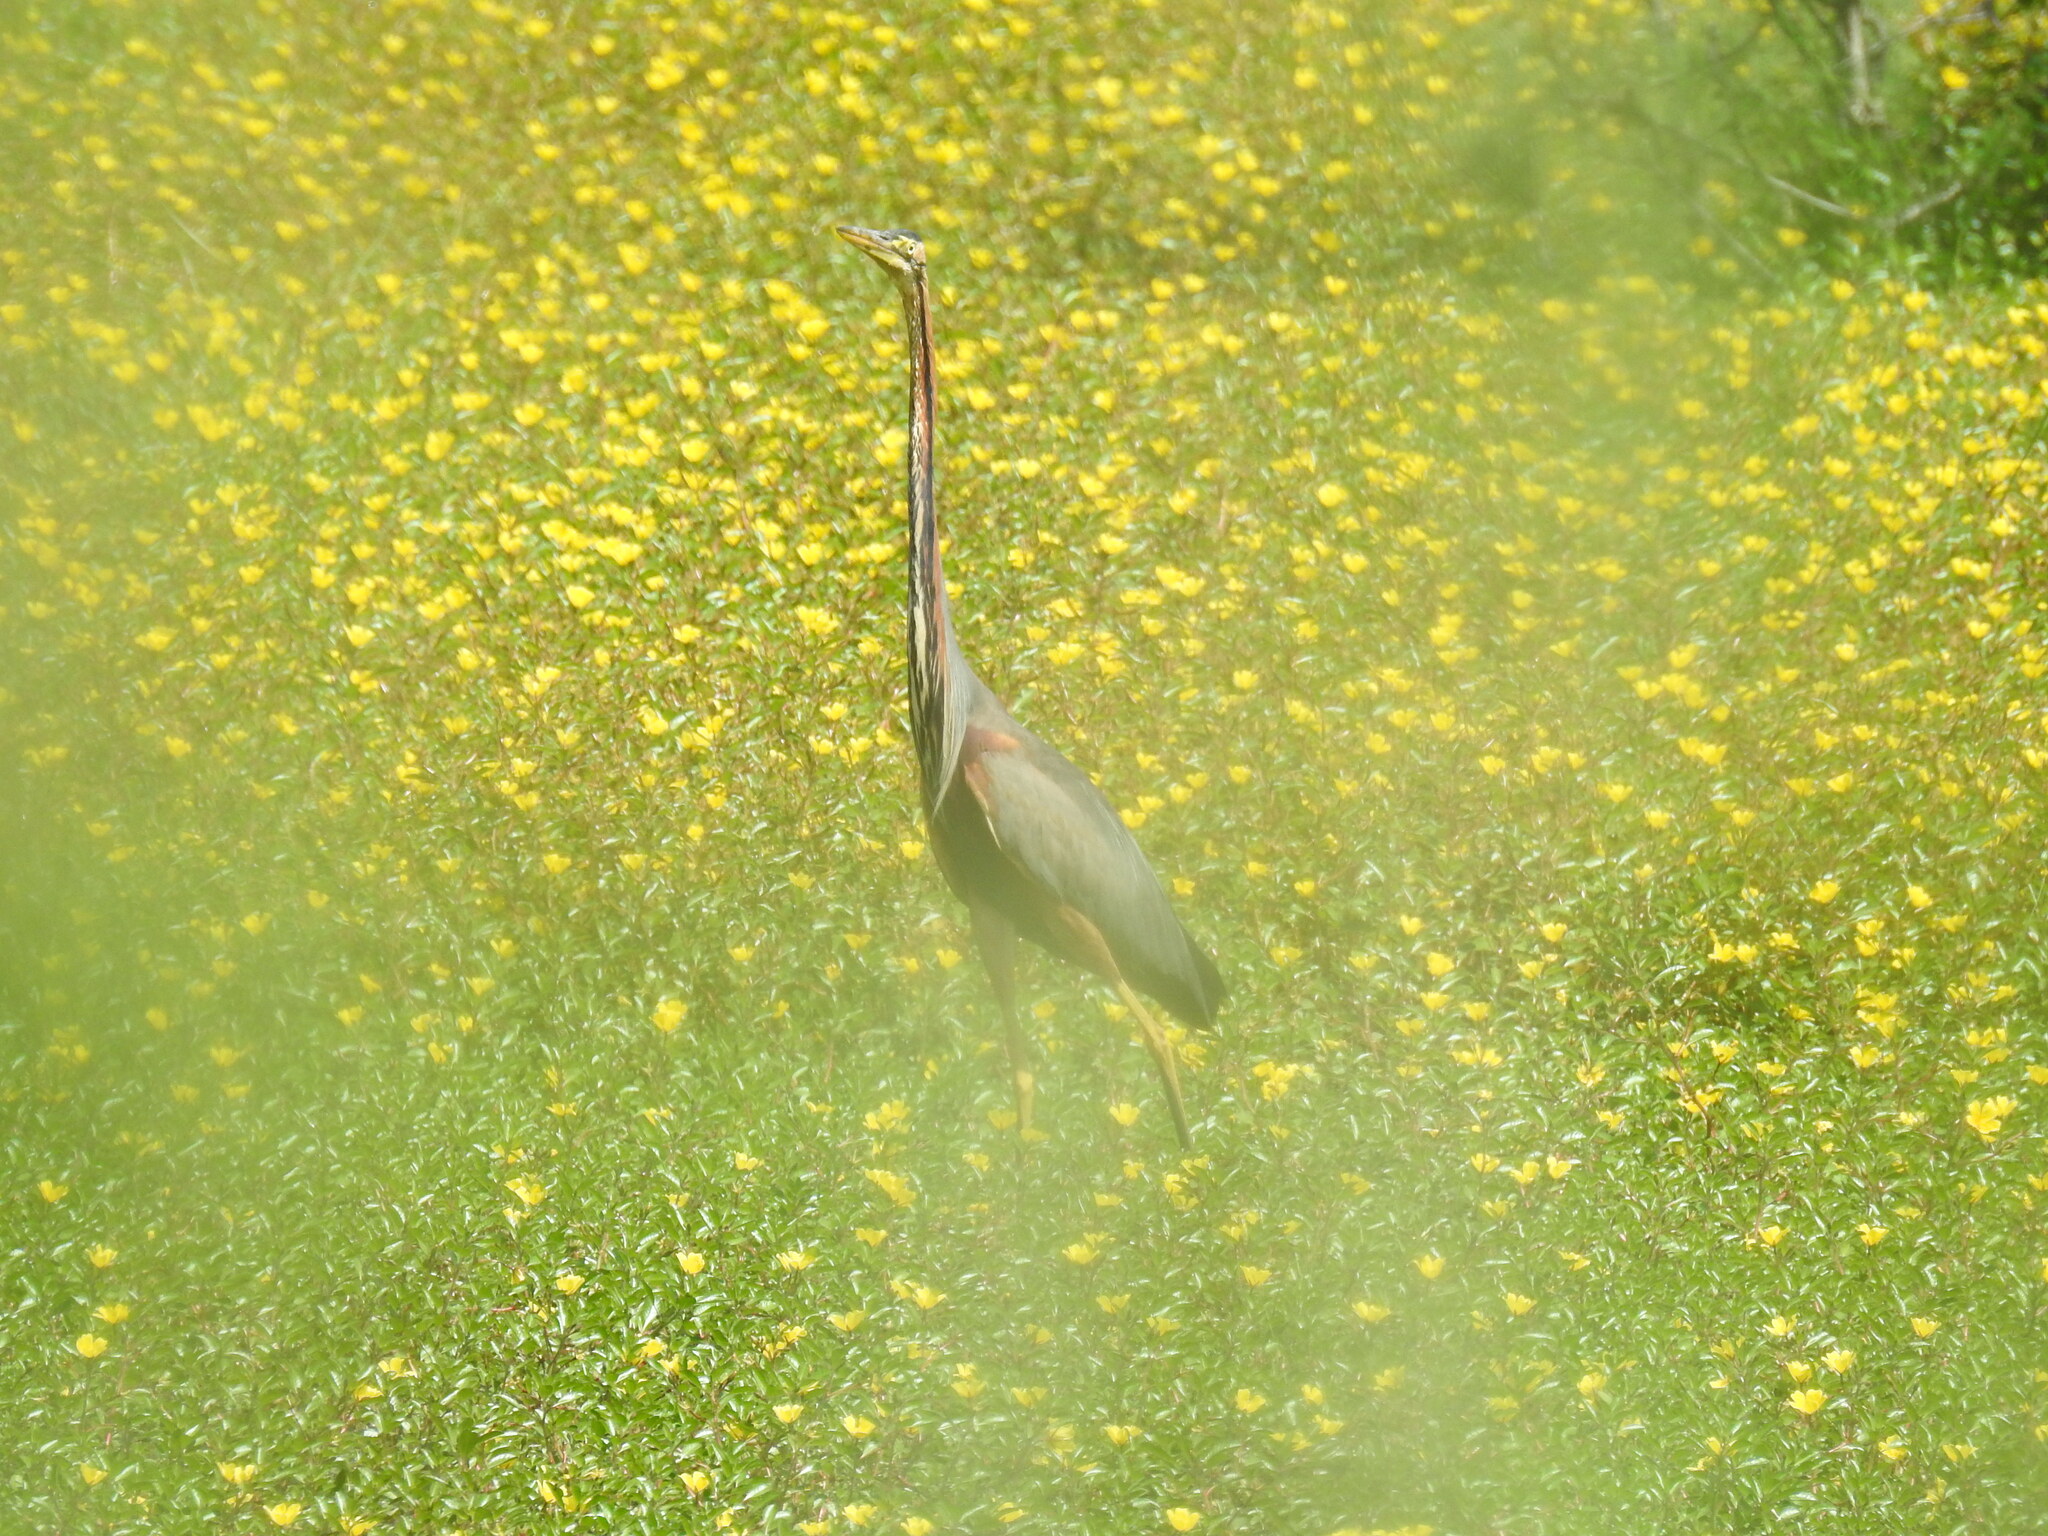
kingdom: Animalia
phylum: Chordata
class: Aves
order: Pelecaniformes
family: Ardeidae
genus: Ardea
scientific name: Ardea purpurea
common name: Purple heron
